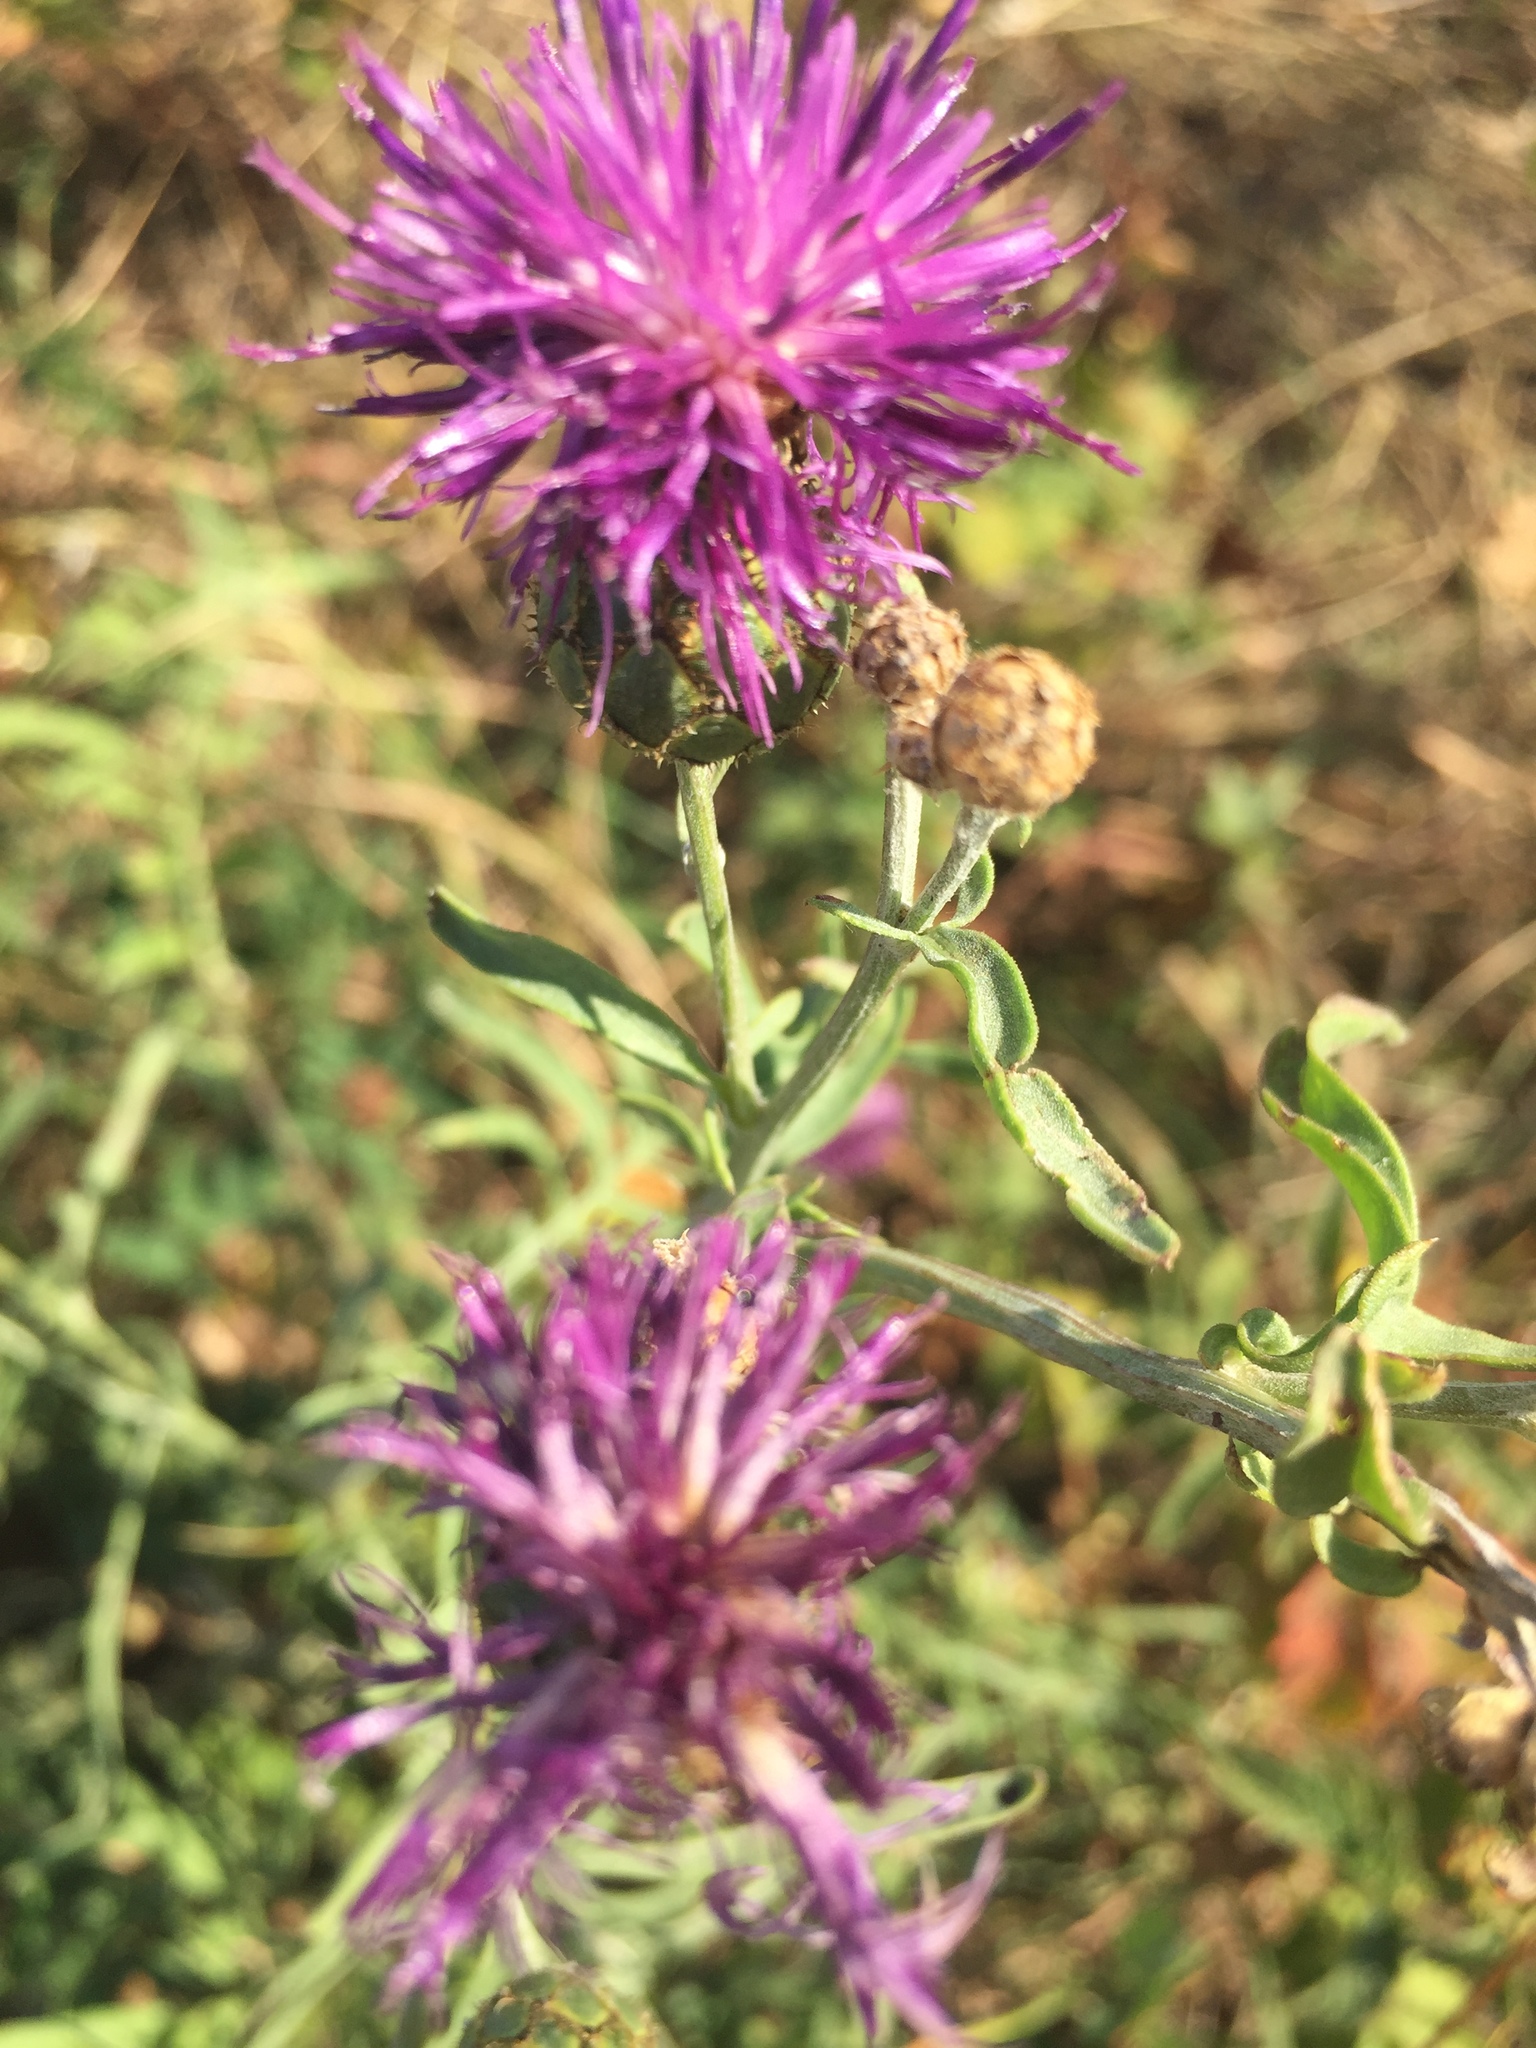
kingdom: Plantae
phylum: Tracheophyta
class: Magnoliopsida
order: Asterales
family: Asteraceae
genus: Centaurea
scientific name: Centaurea scabiosa
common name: Greater knapweed
